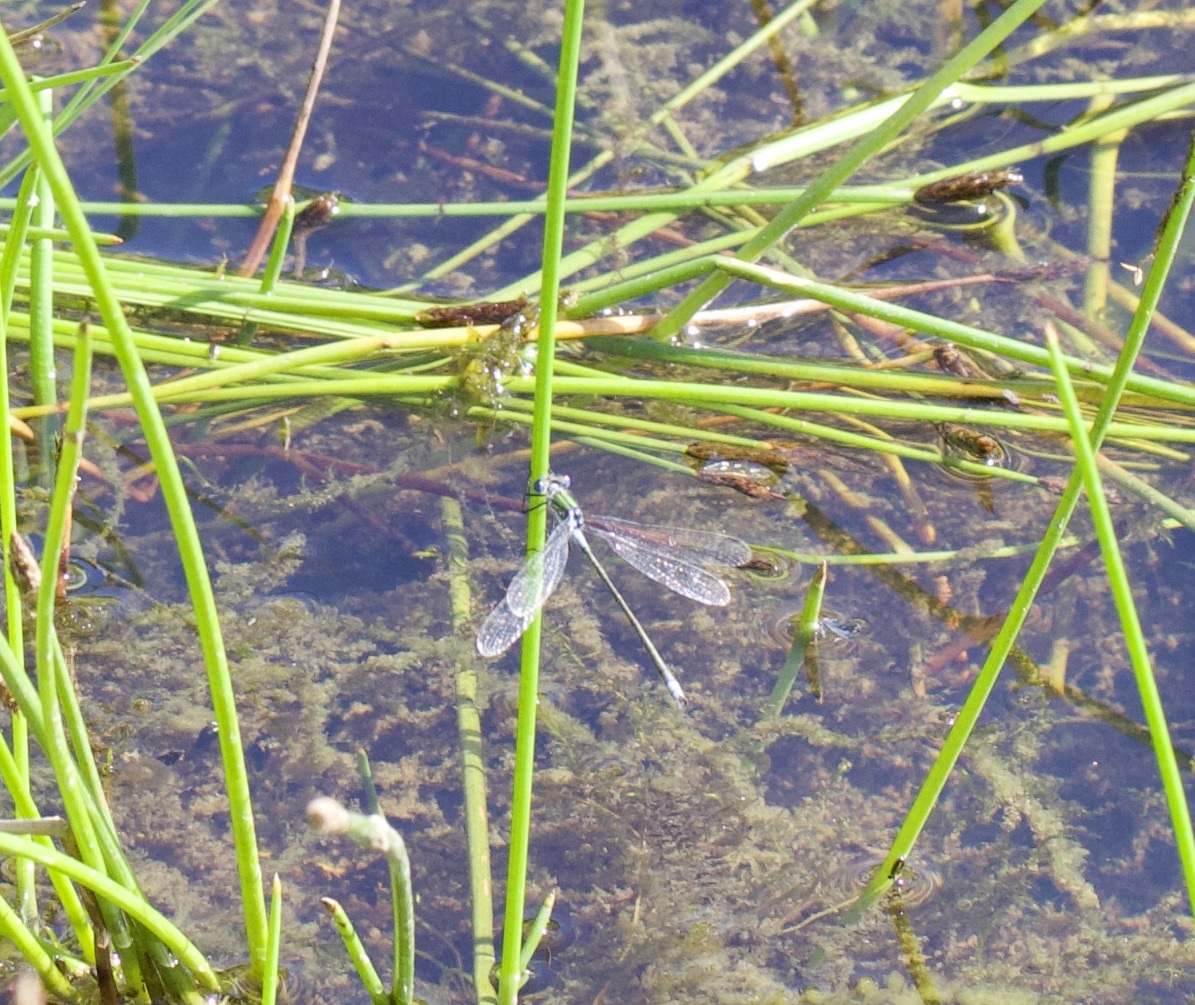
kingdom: Animalia
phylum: Arthropoda
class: Insecta
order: Odonata
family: Lestidae
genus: Lestes
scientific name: Lestes sponsa
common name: Common spreadwing
